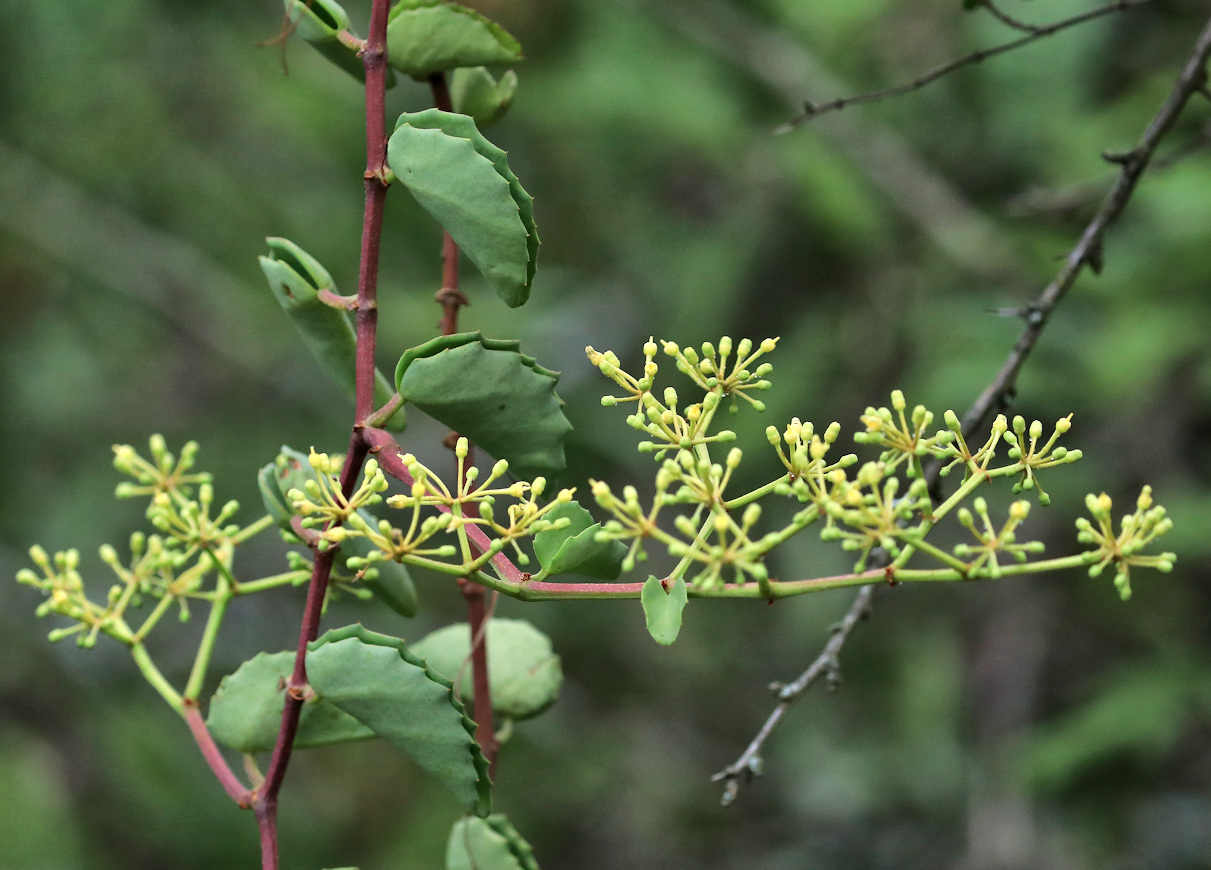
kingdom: Plantae
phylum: Tracheophyta
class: Magnoliopsida
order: Vitales
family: Vitaceae
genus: Cissus
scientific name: Cissus rotundifolia
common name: Arabian wax cissus
